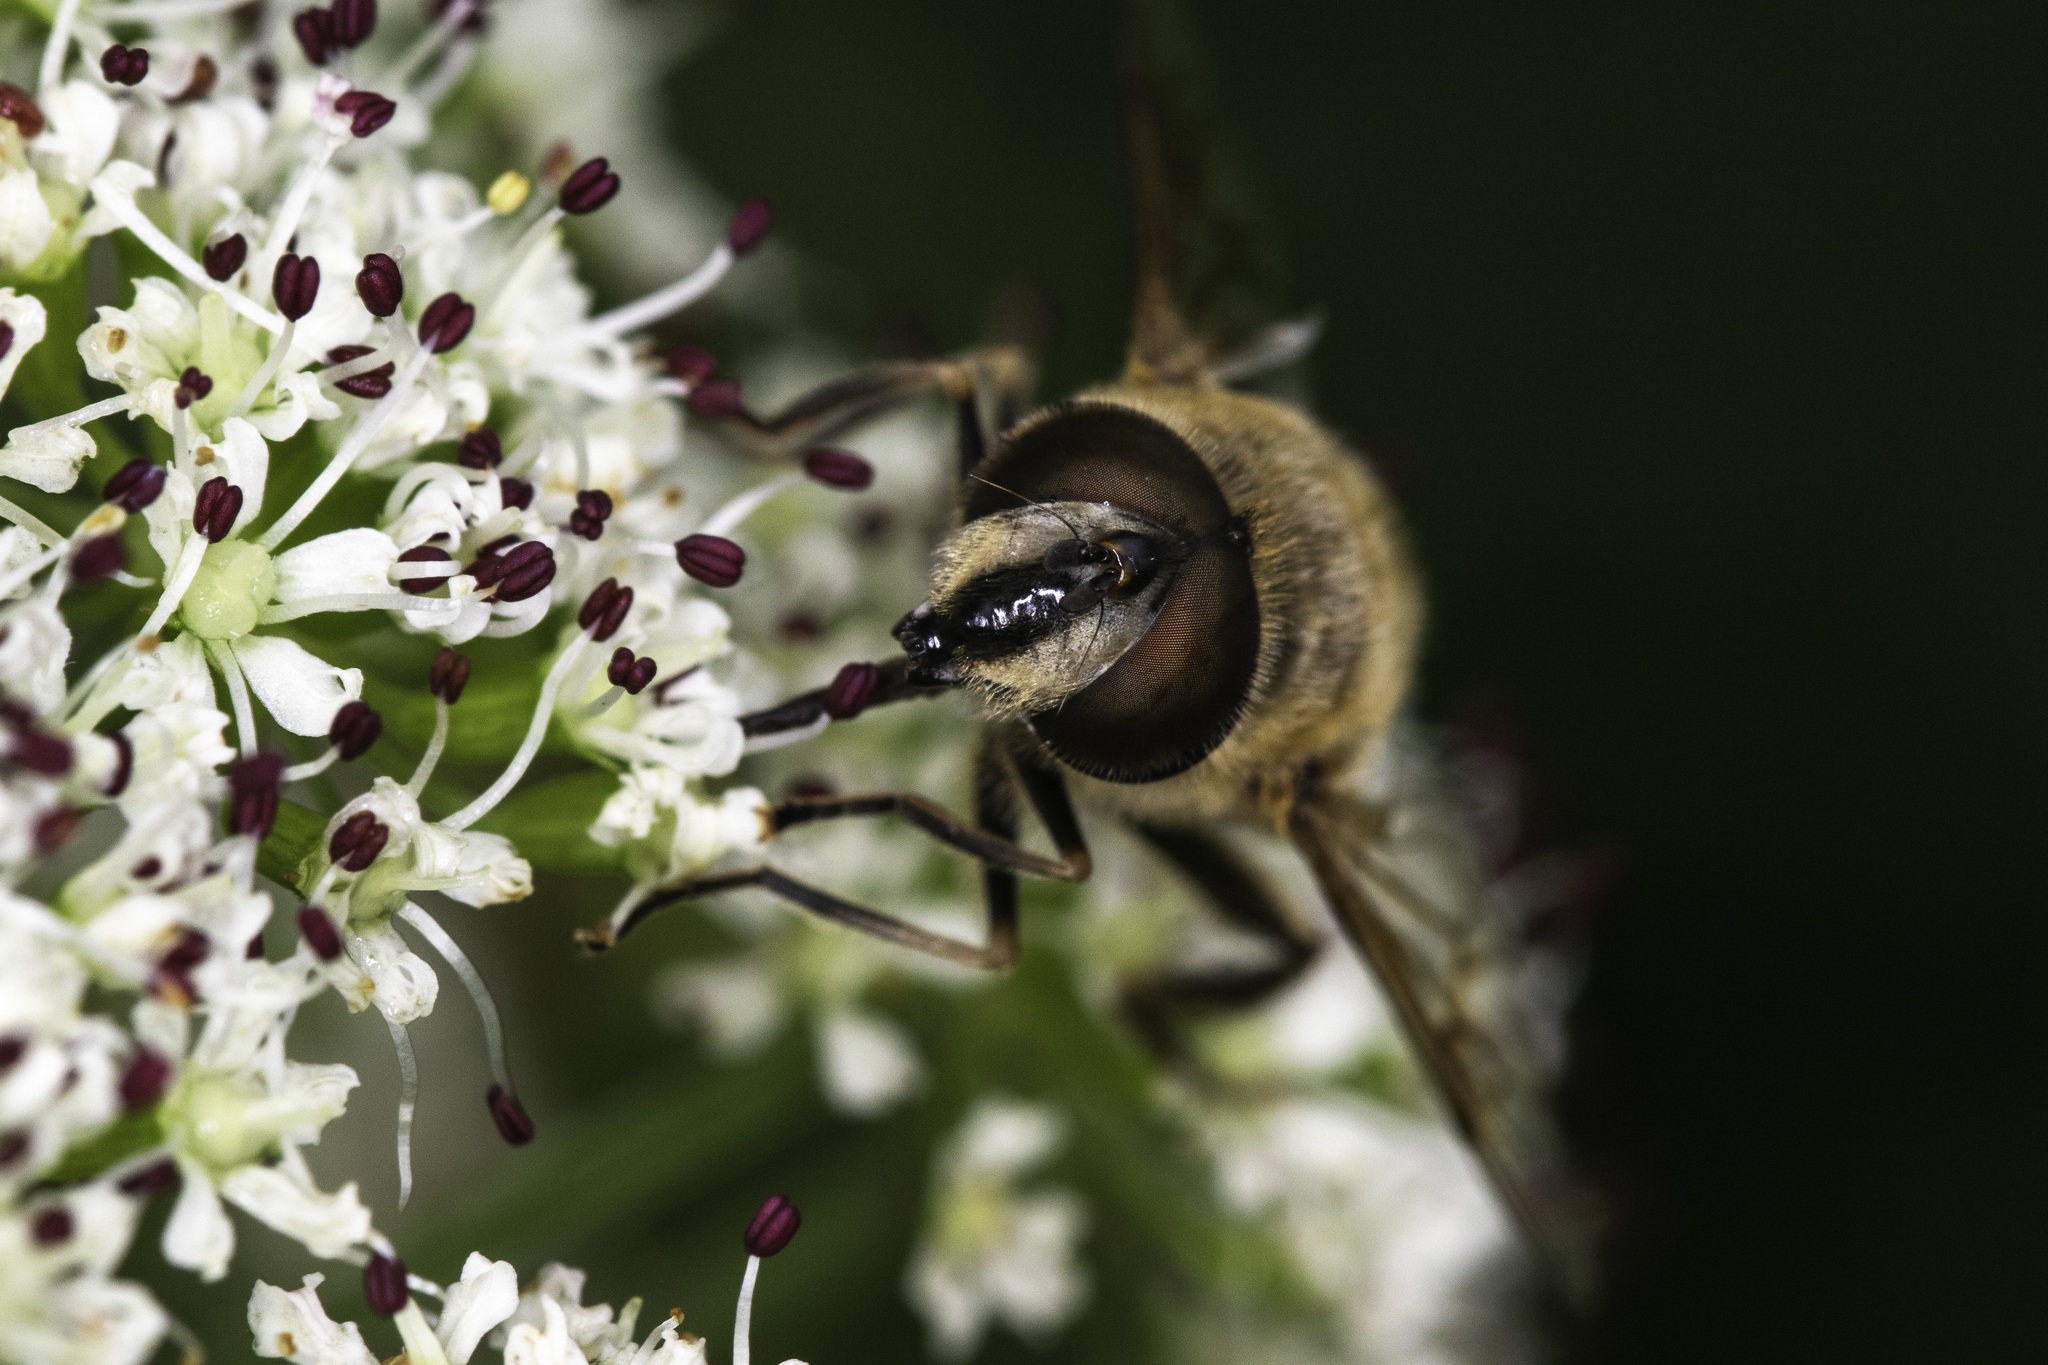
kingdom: Animalia
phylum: Arthropoda
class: Insecta
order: Diptera
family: Syrphidae
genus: Eristalis
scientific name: Eristalis tenax
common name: Drone fly
